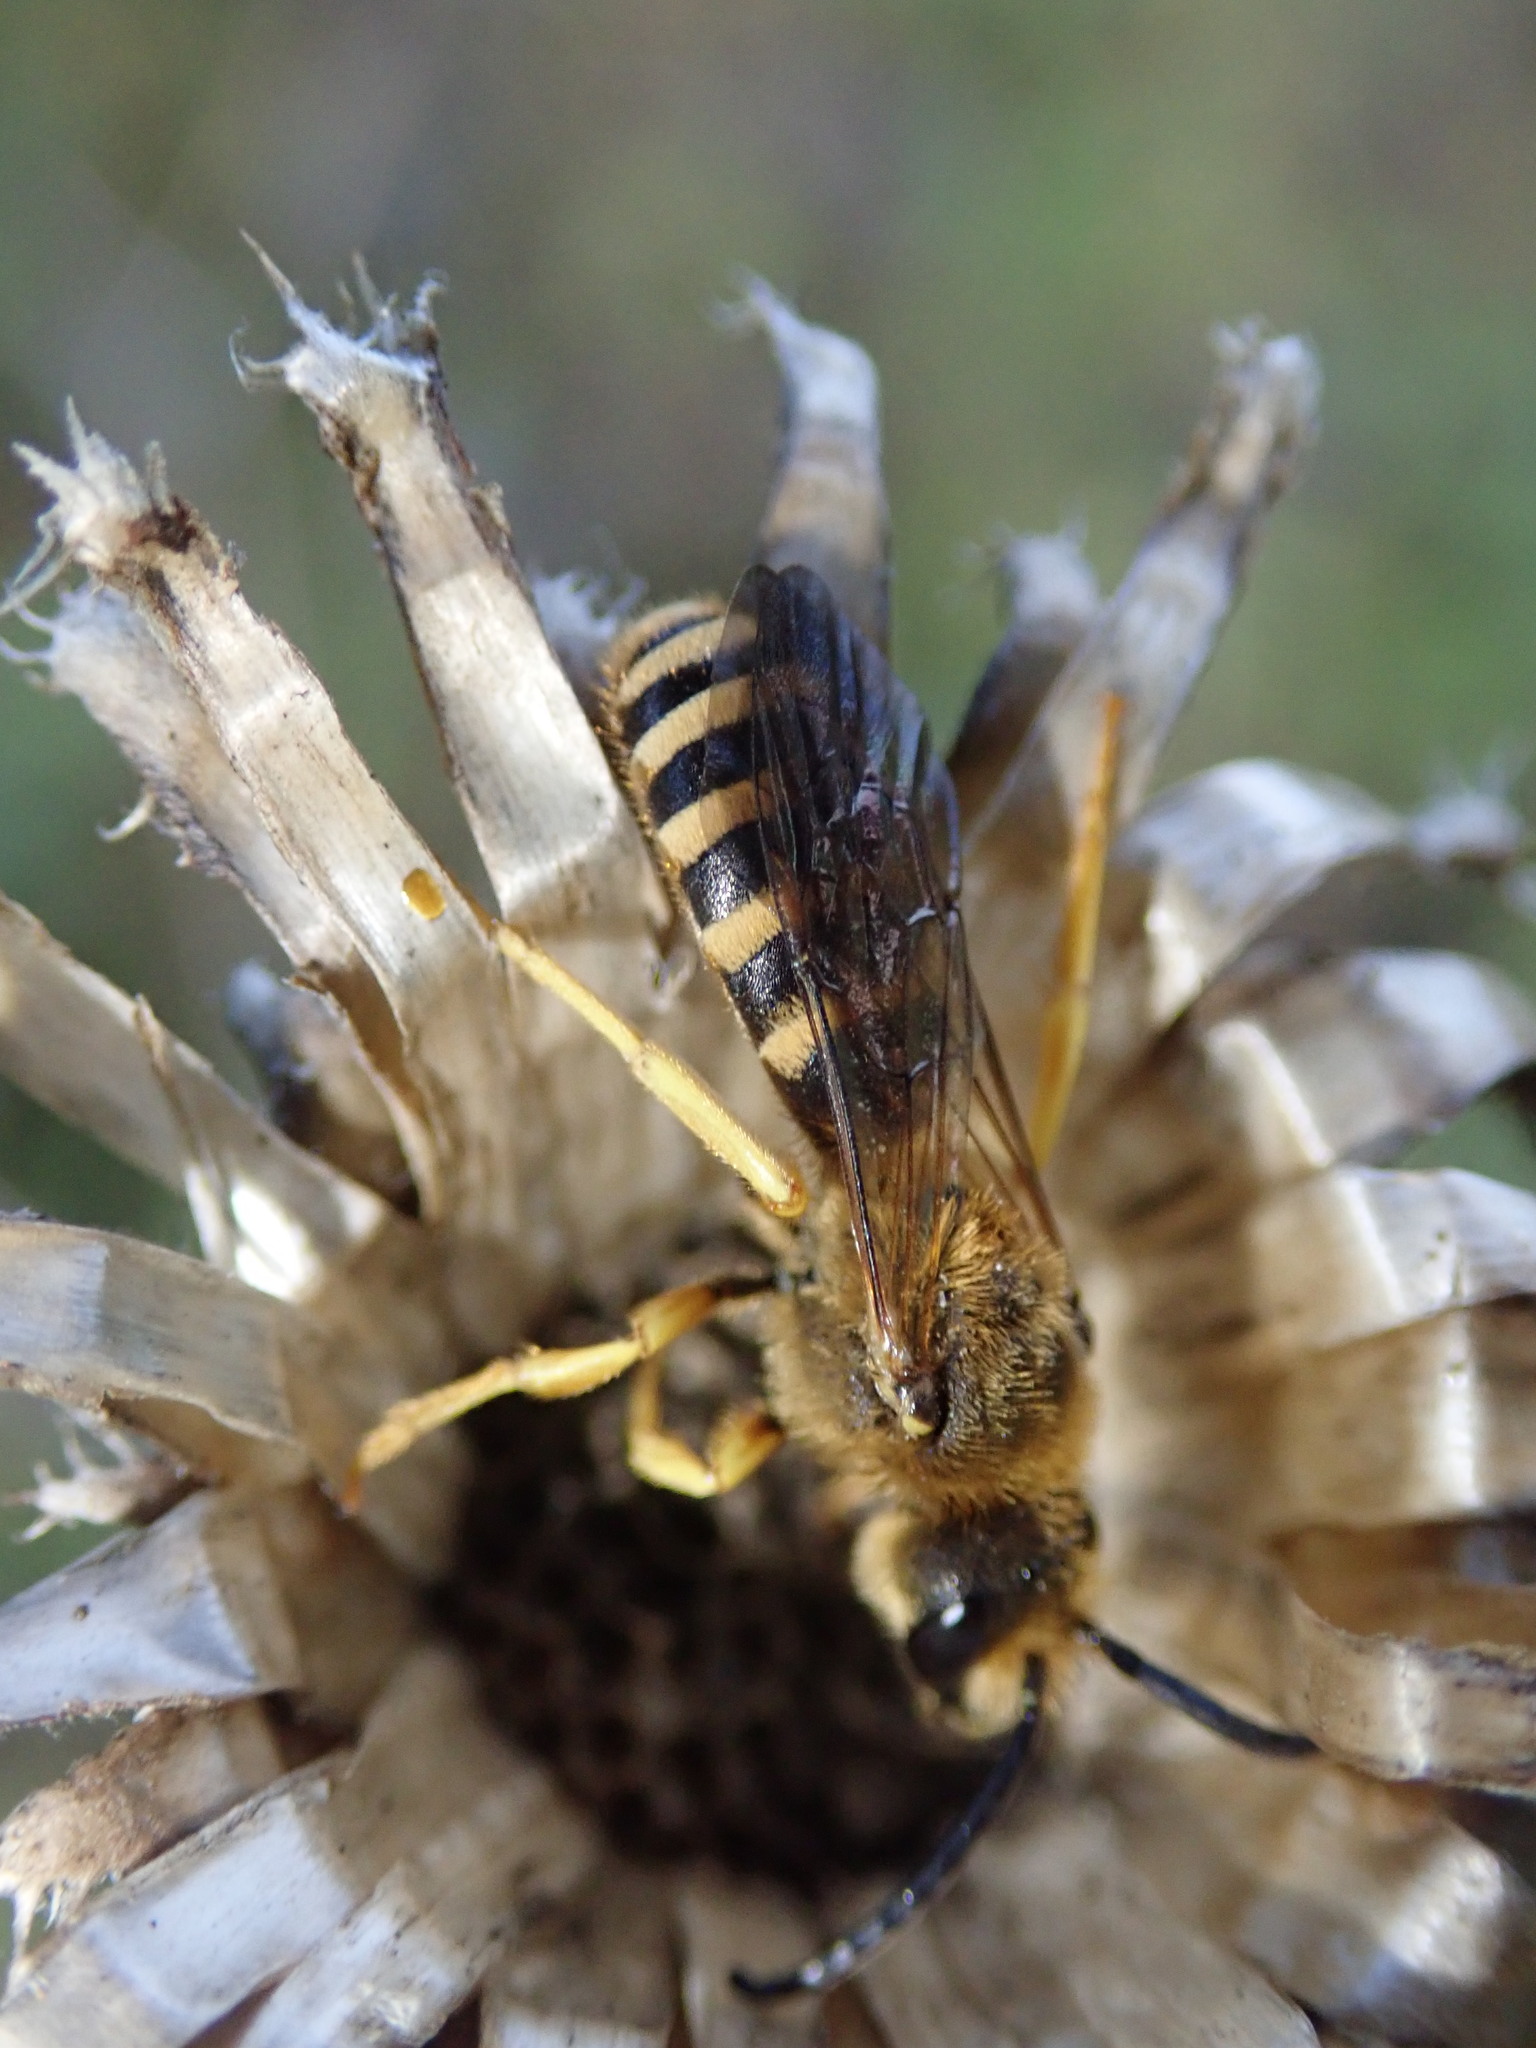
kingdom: Animalia
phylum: Arthropoda
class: Insecta
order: Hymenoptera
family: Halictidae
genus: Halictus
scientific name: Halictus scabiosae
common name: Great banded furrow bee
